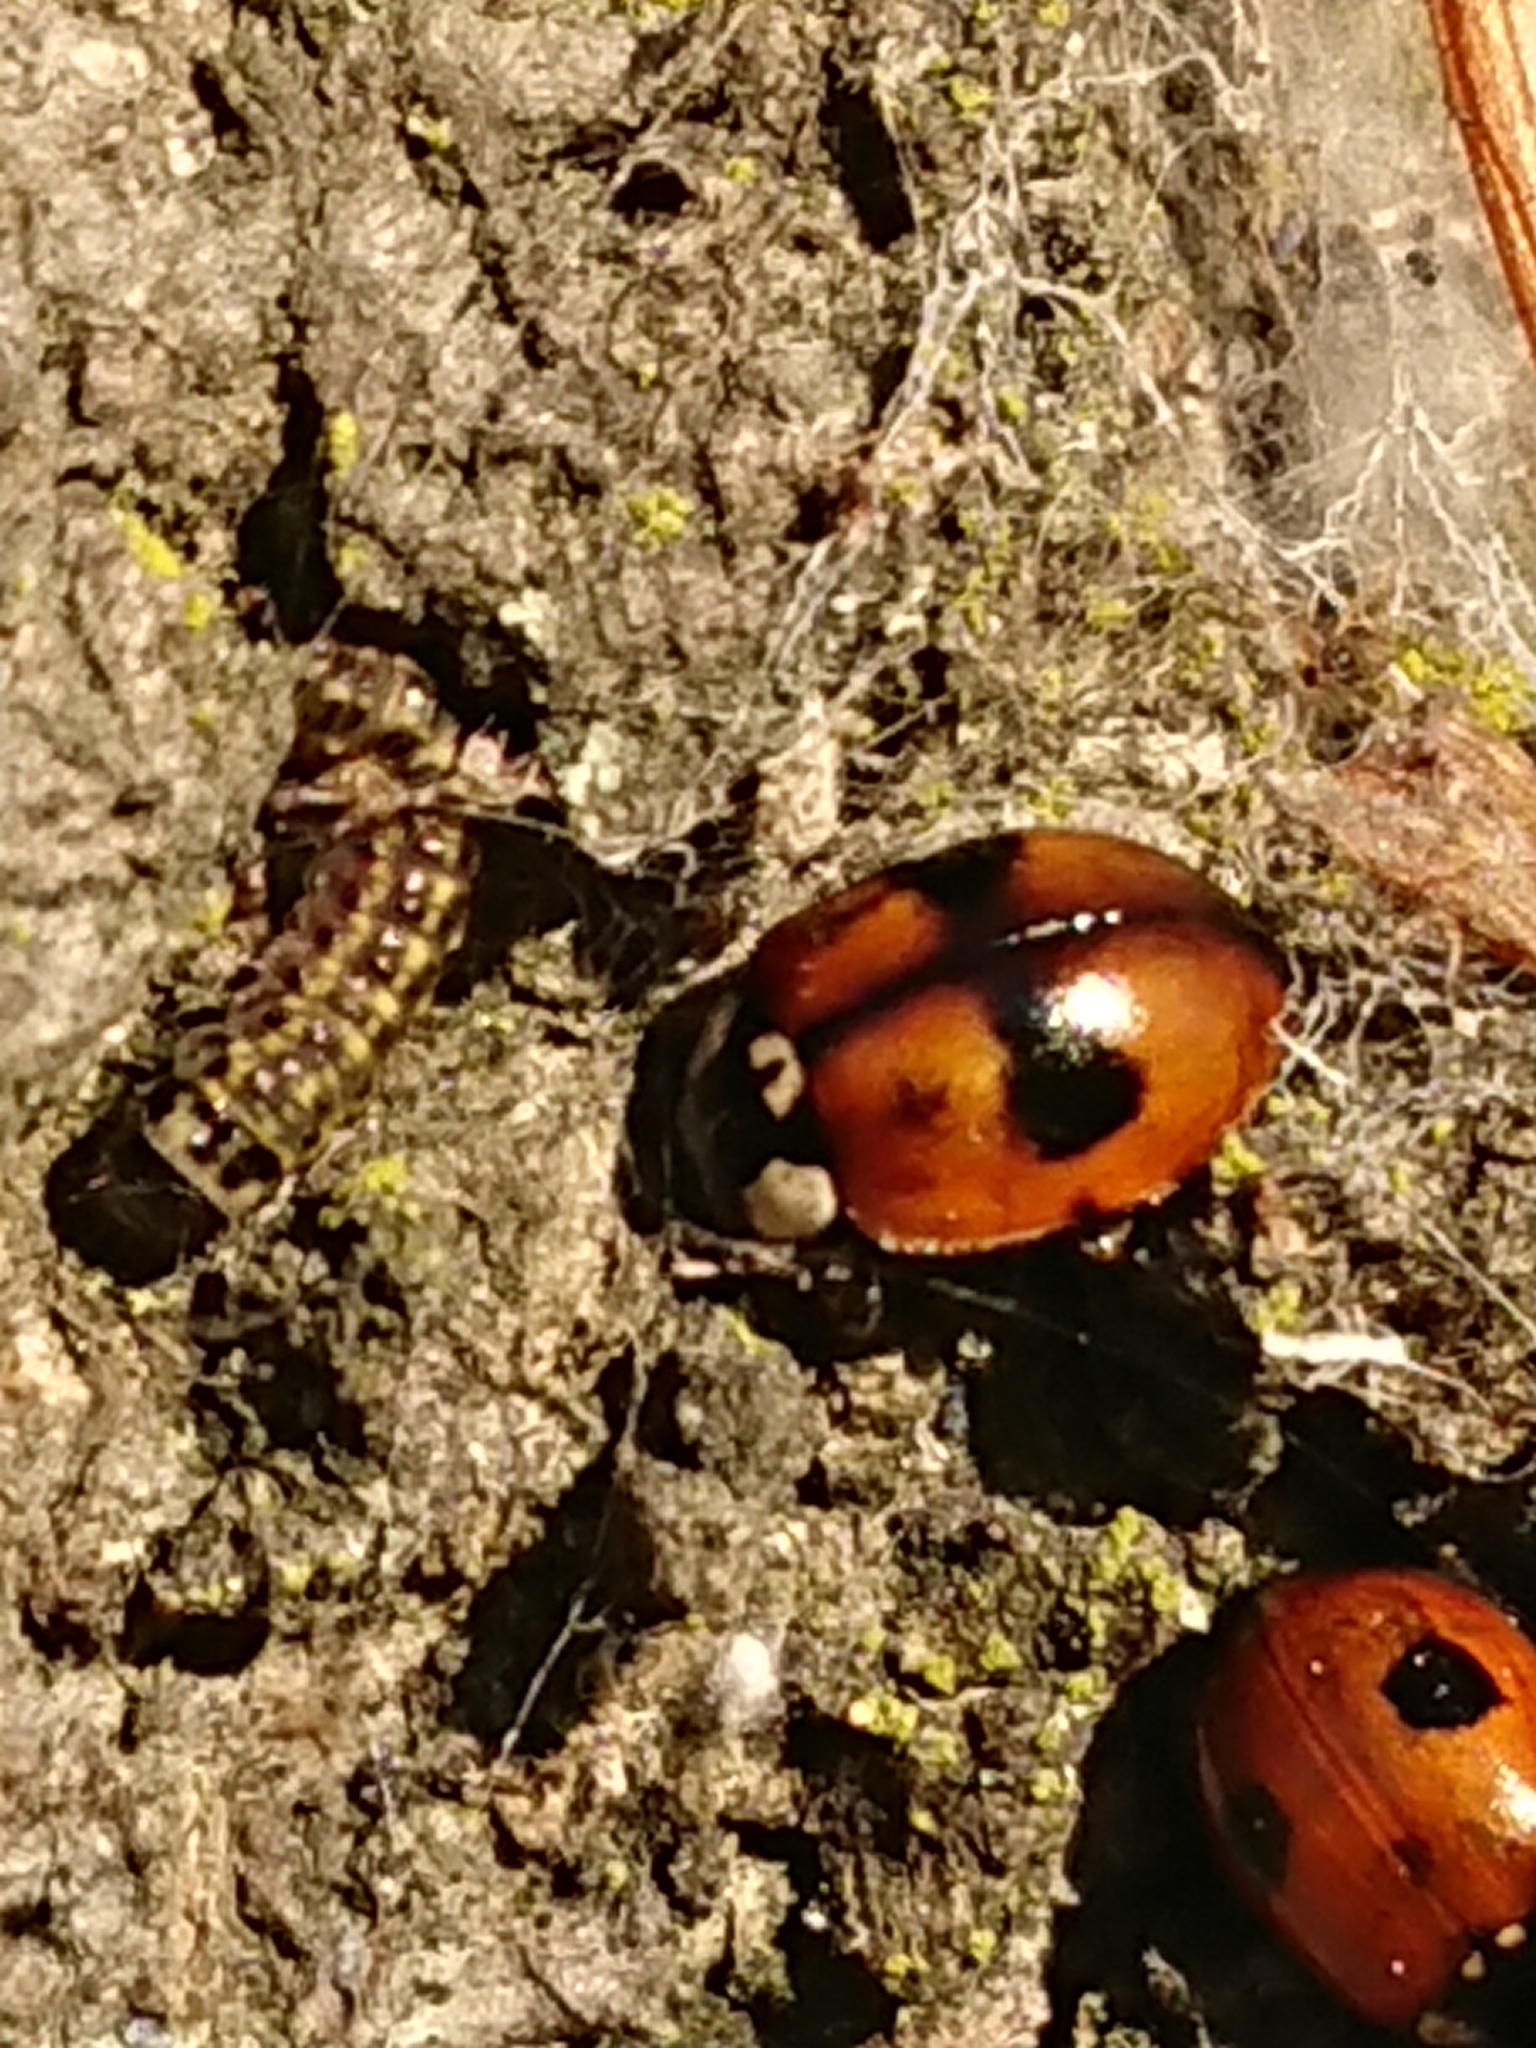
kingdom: Animalia
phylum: Arthropoda
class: Insecta
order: Coleoptera
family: Coccinellidae
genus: Adalia
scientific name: Adalia bipunctata
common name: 2-spot ladybird
